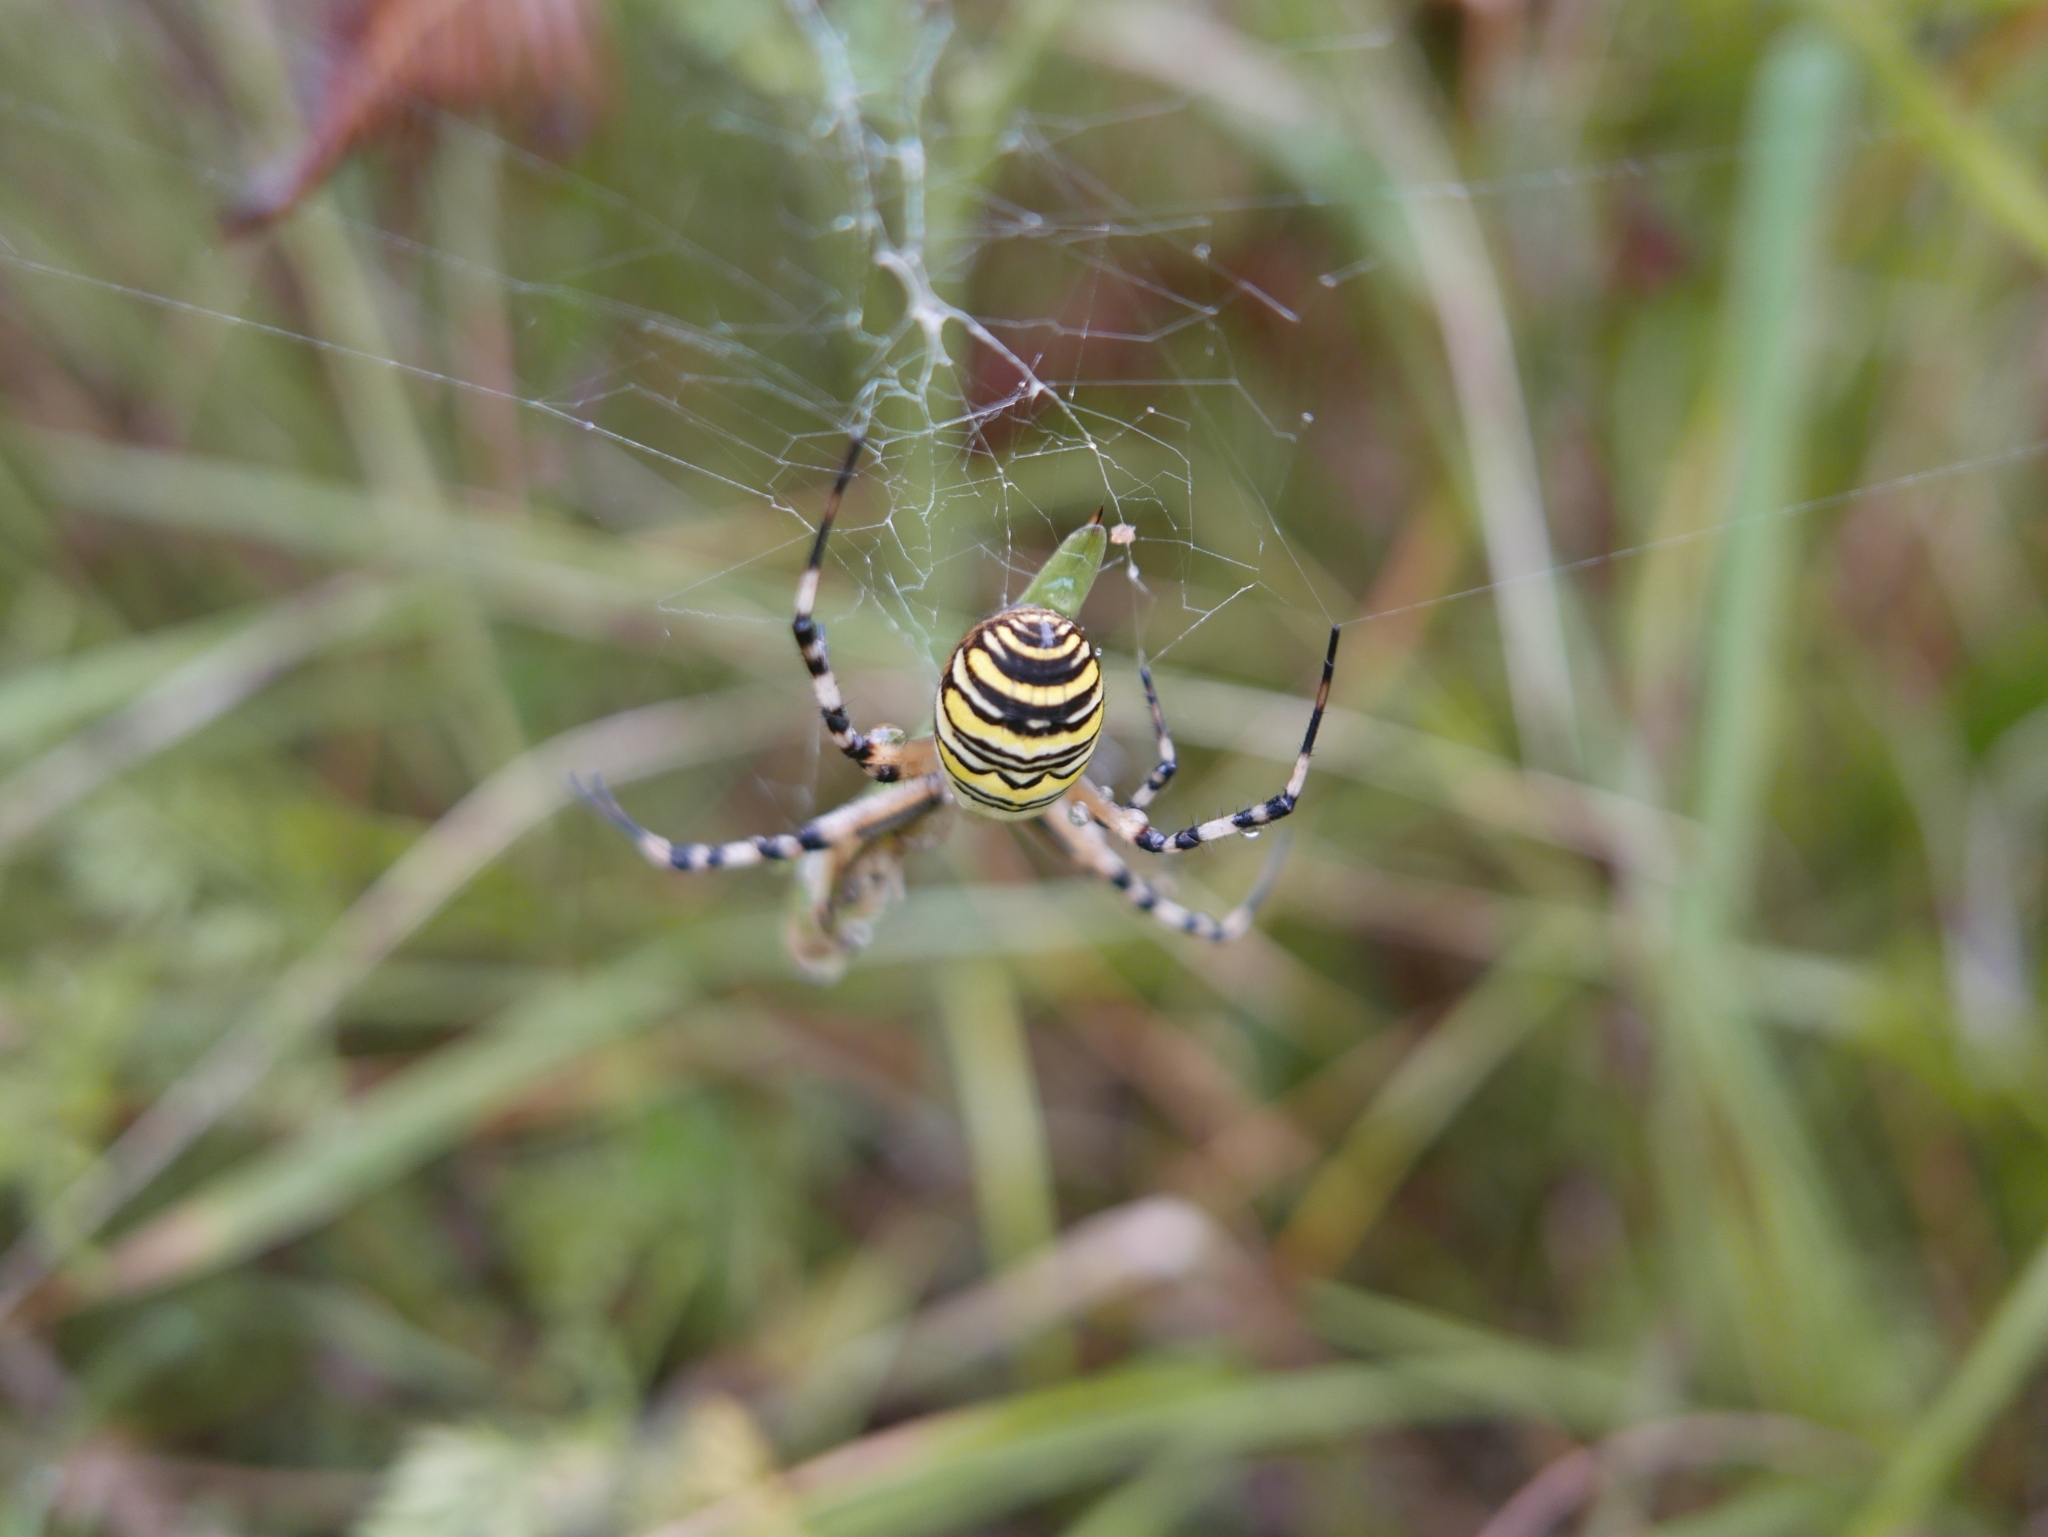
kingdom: Animalia
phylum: Arthropoda
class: Arachnida
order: Araneae
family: Araneidae
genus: Argiope
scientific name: Argiope bruennichi
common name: Wasp spider
